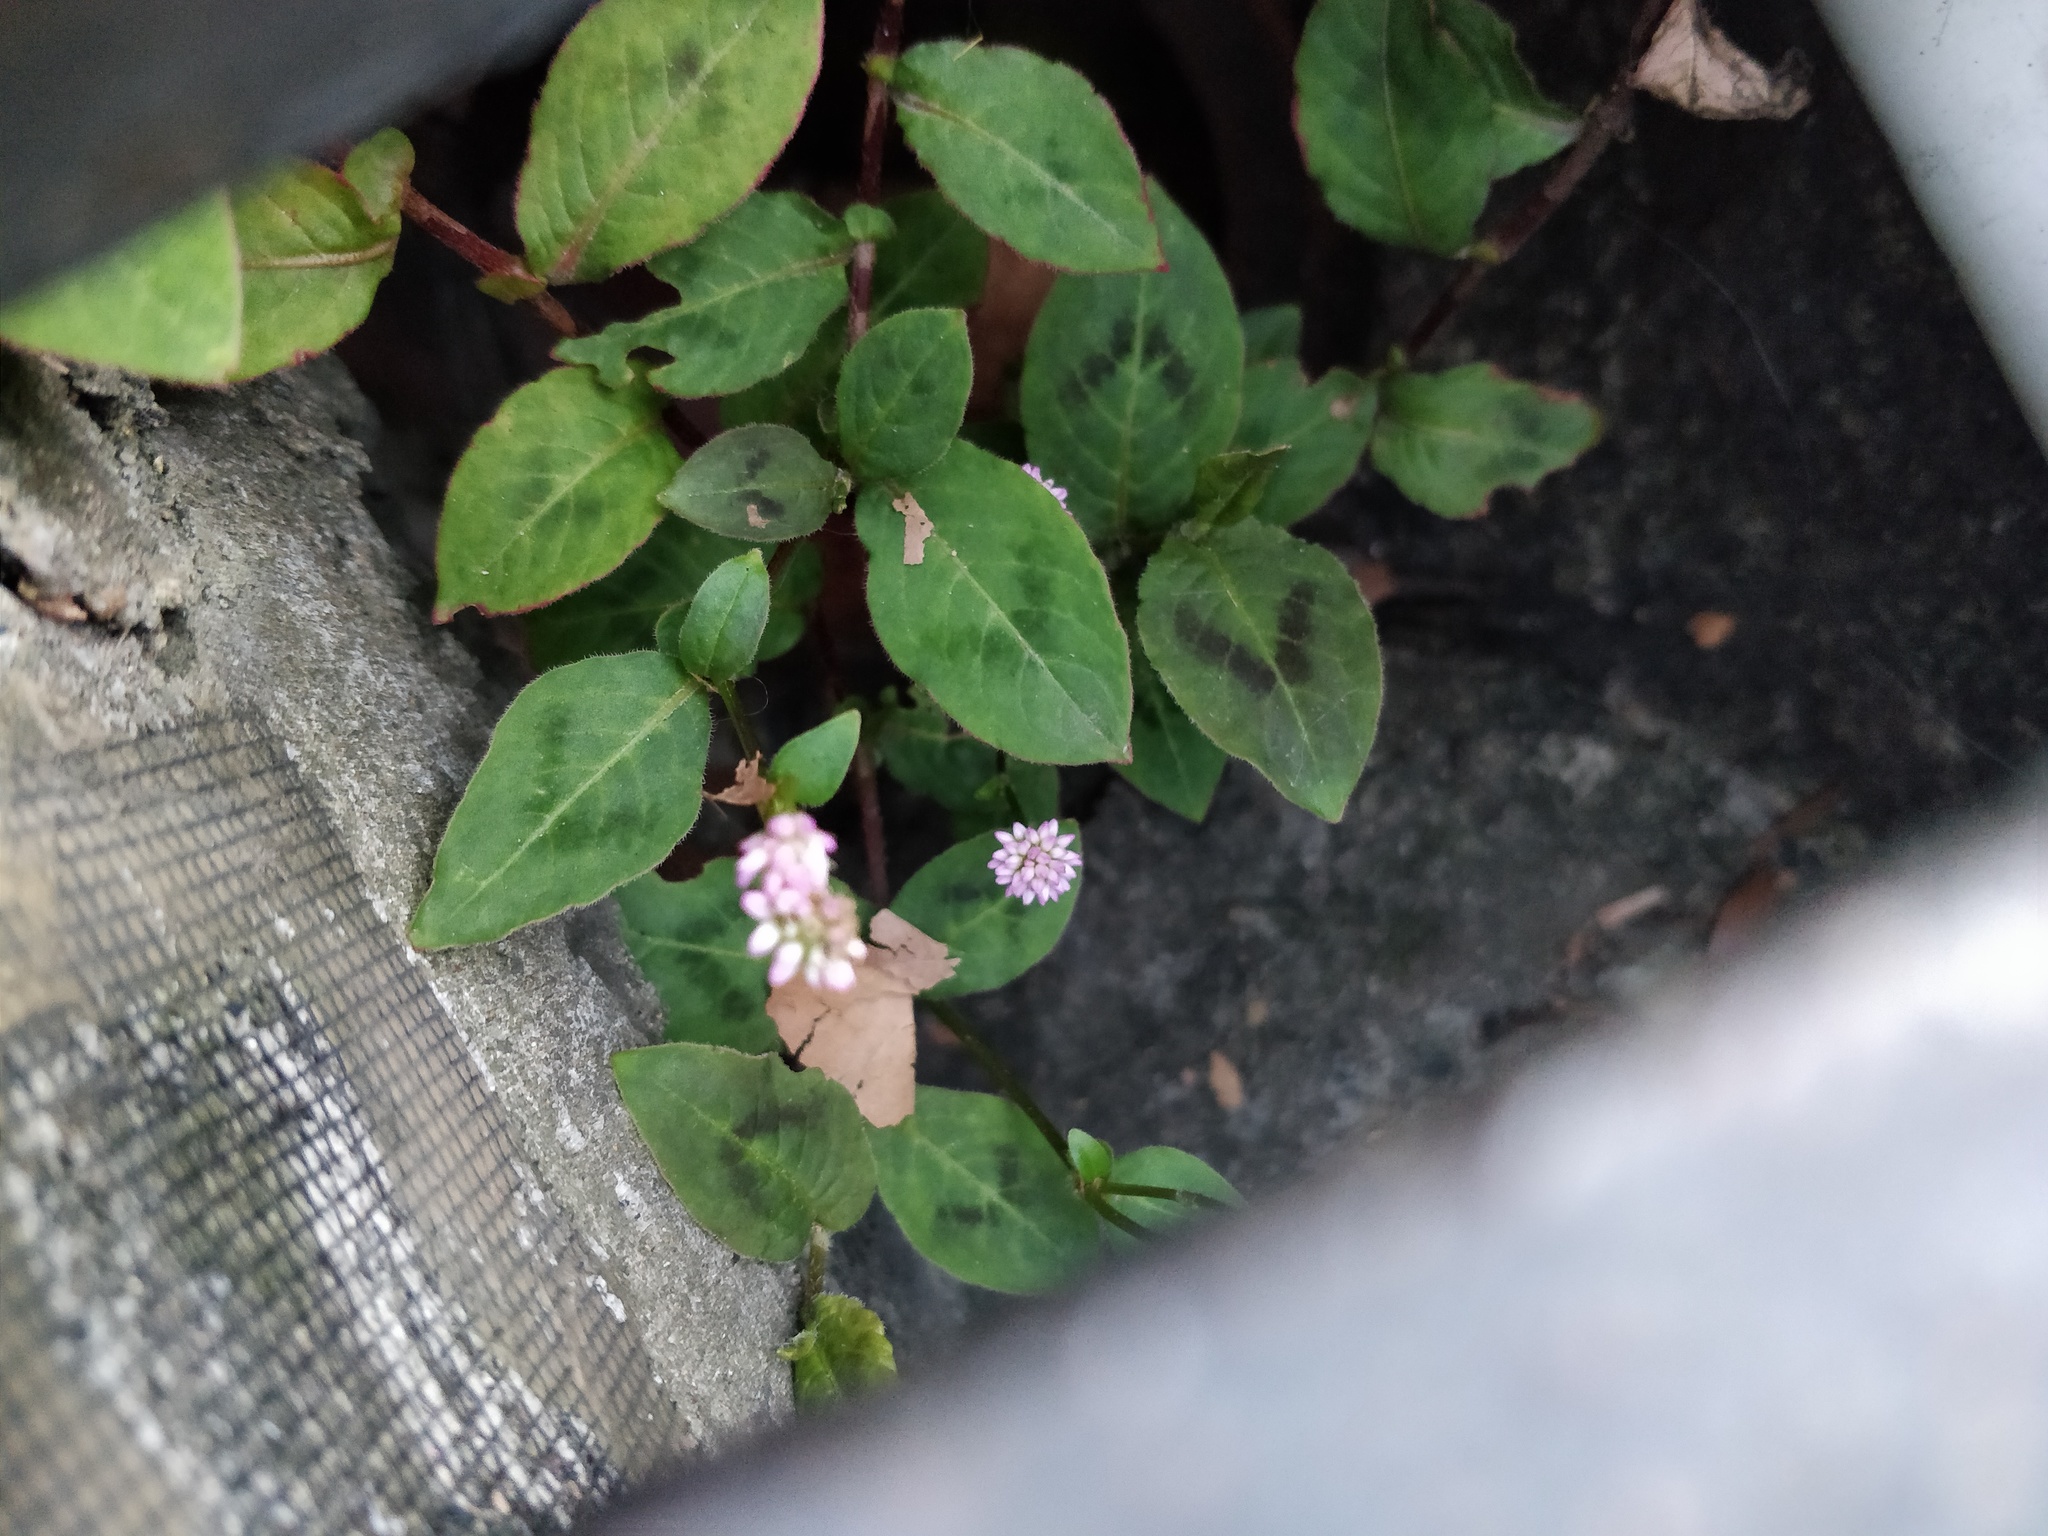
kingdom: Plantae
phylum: Tracheophyta
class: Magnoliopsida
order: Caryophyllales
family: Polygonaceae
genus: Persicaria
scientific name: Persicaria capitata
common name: Pinkhead smartweed
